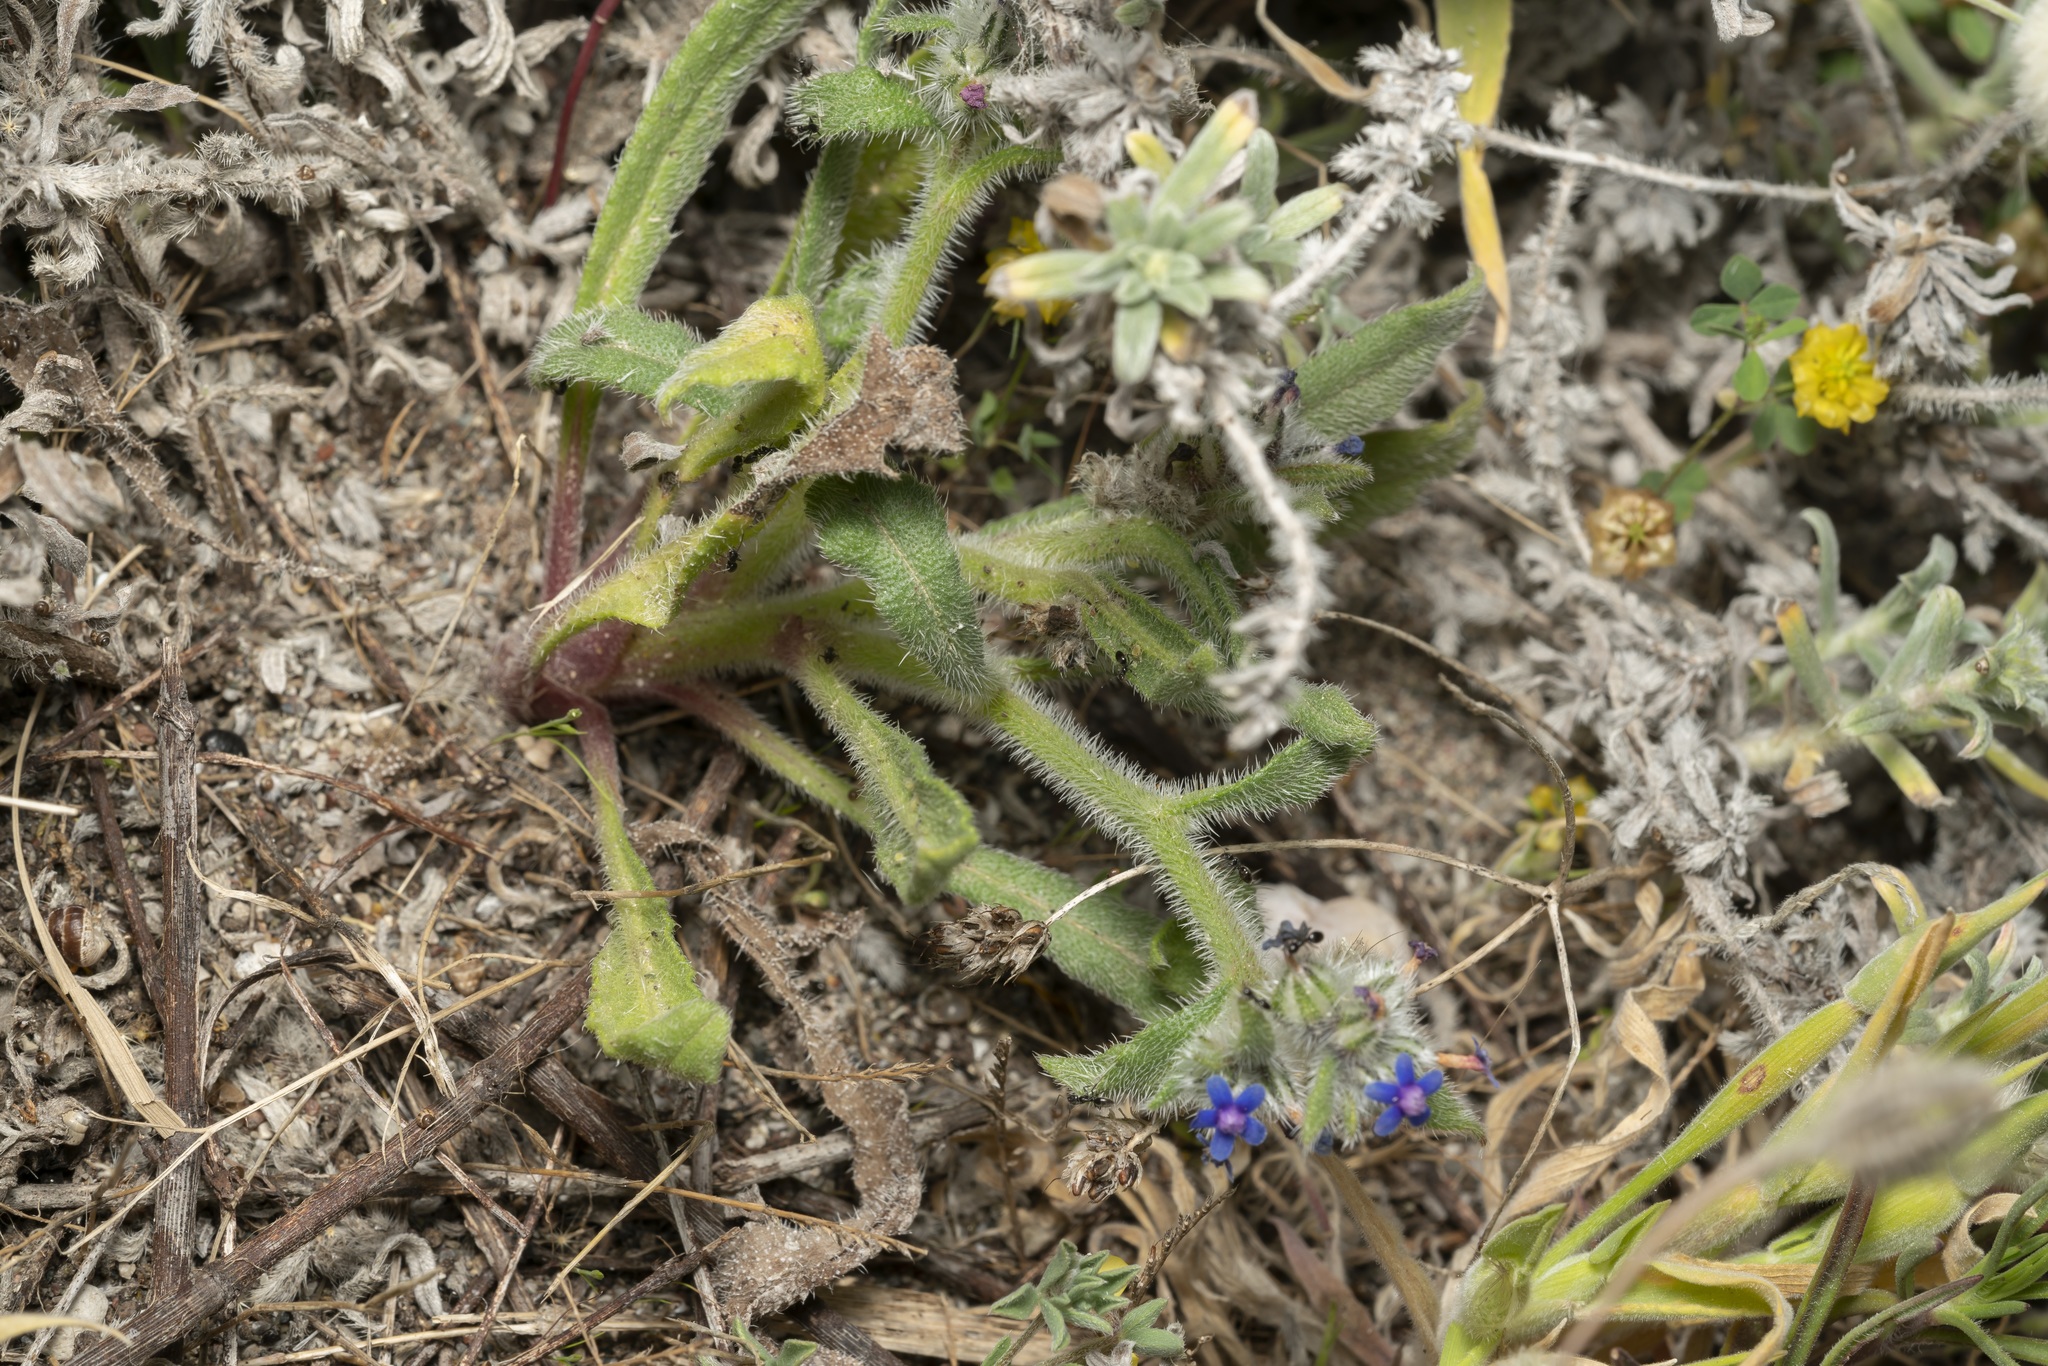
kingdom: Plantae
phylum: Tracheophyta
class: Magnoliopsida
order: Boraginales
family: Boraginaceae
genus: Hormuzakia
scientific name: Hormuzakia aggregata
